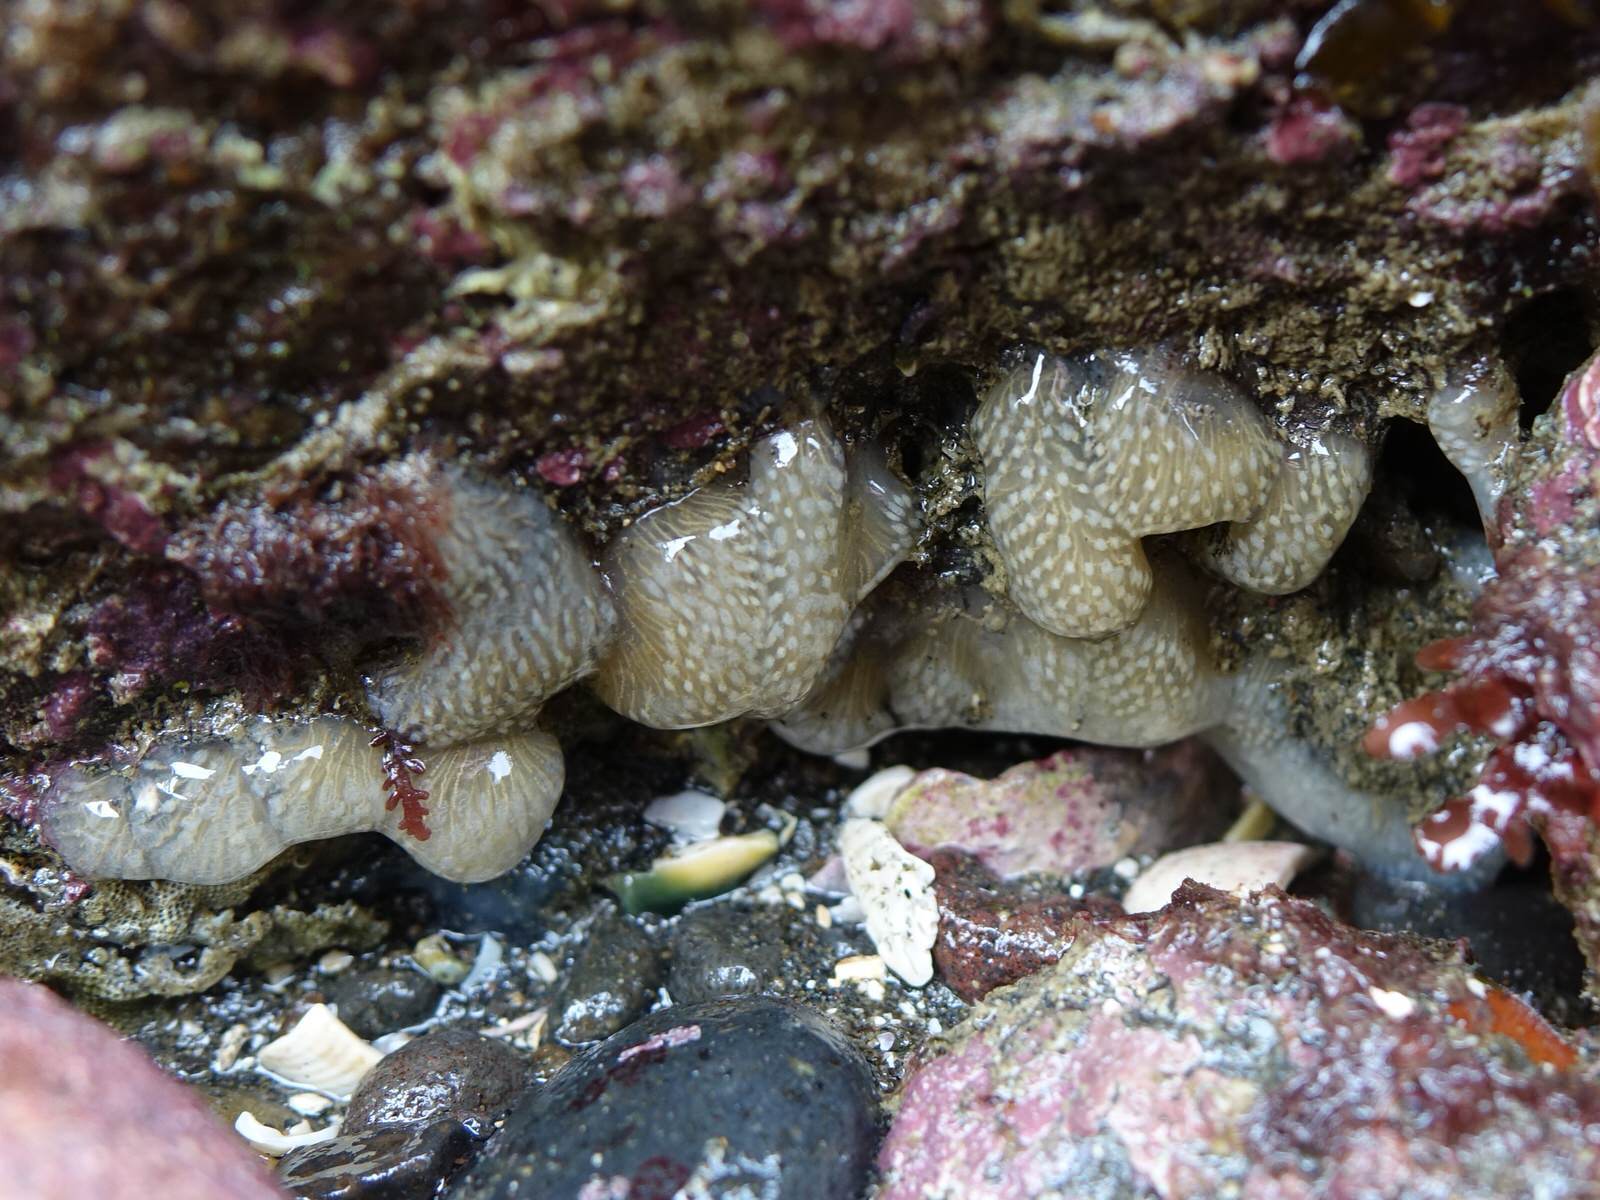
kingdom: Animalia
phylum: Chordata
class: Ascidiacea
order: Aplousobranchia
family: Pseudodistomidae
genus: Pseudodistoma
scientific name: Pseudodistoma opacum
